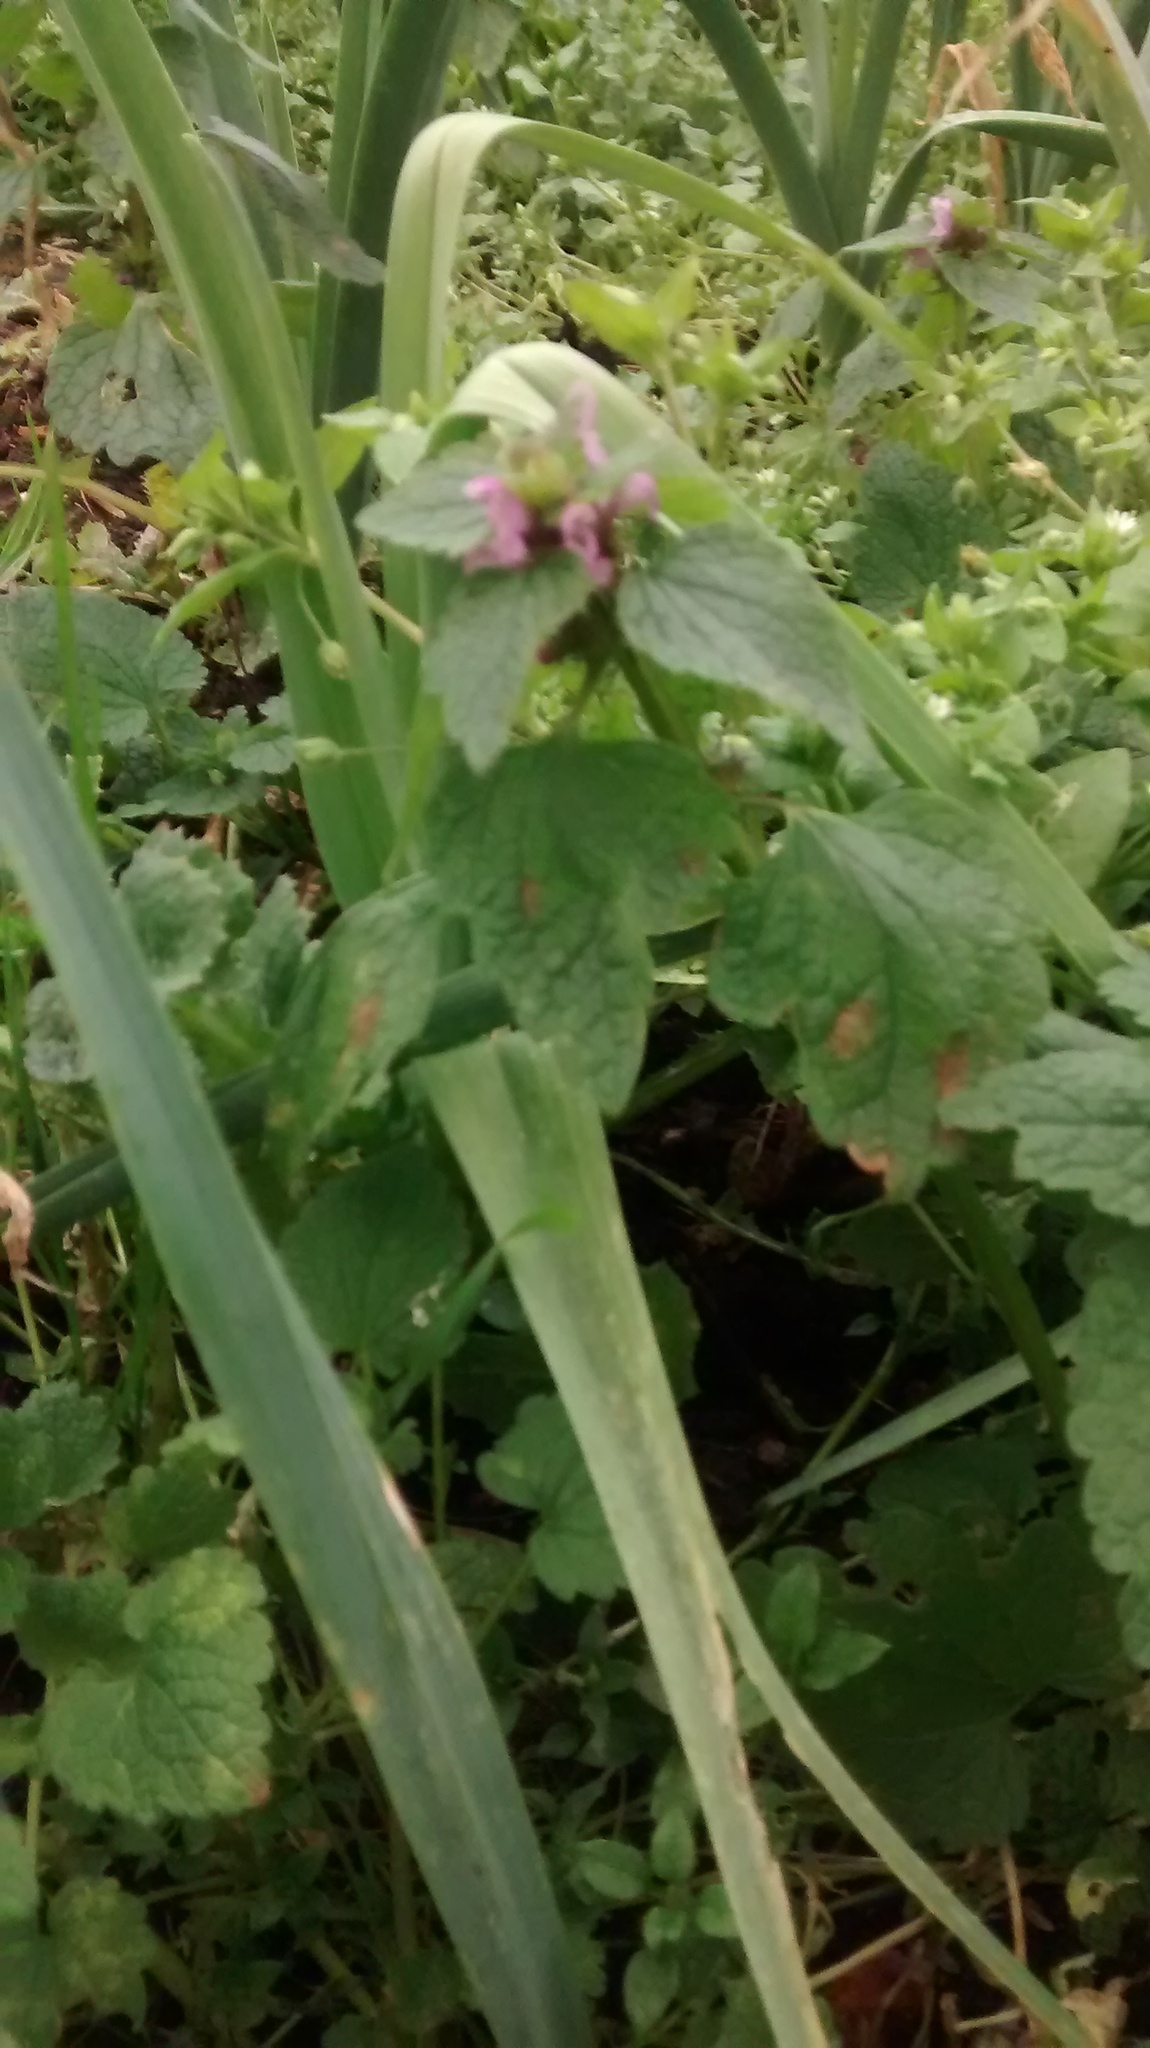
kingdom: Plantae
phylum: Tracheophyta
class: Magnoliopsida
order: Lamiales
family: Lamiaceae
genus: Lamium
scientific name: Lamium purpureum
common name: Red dead-nettle
